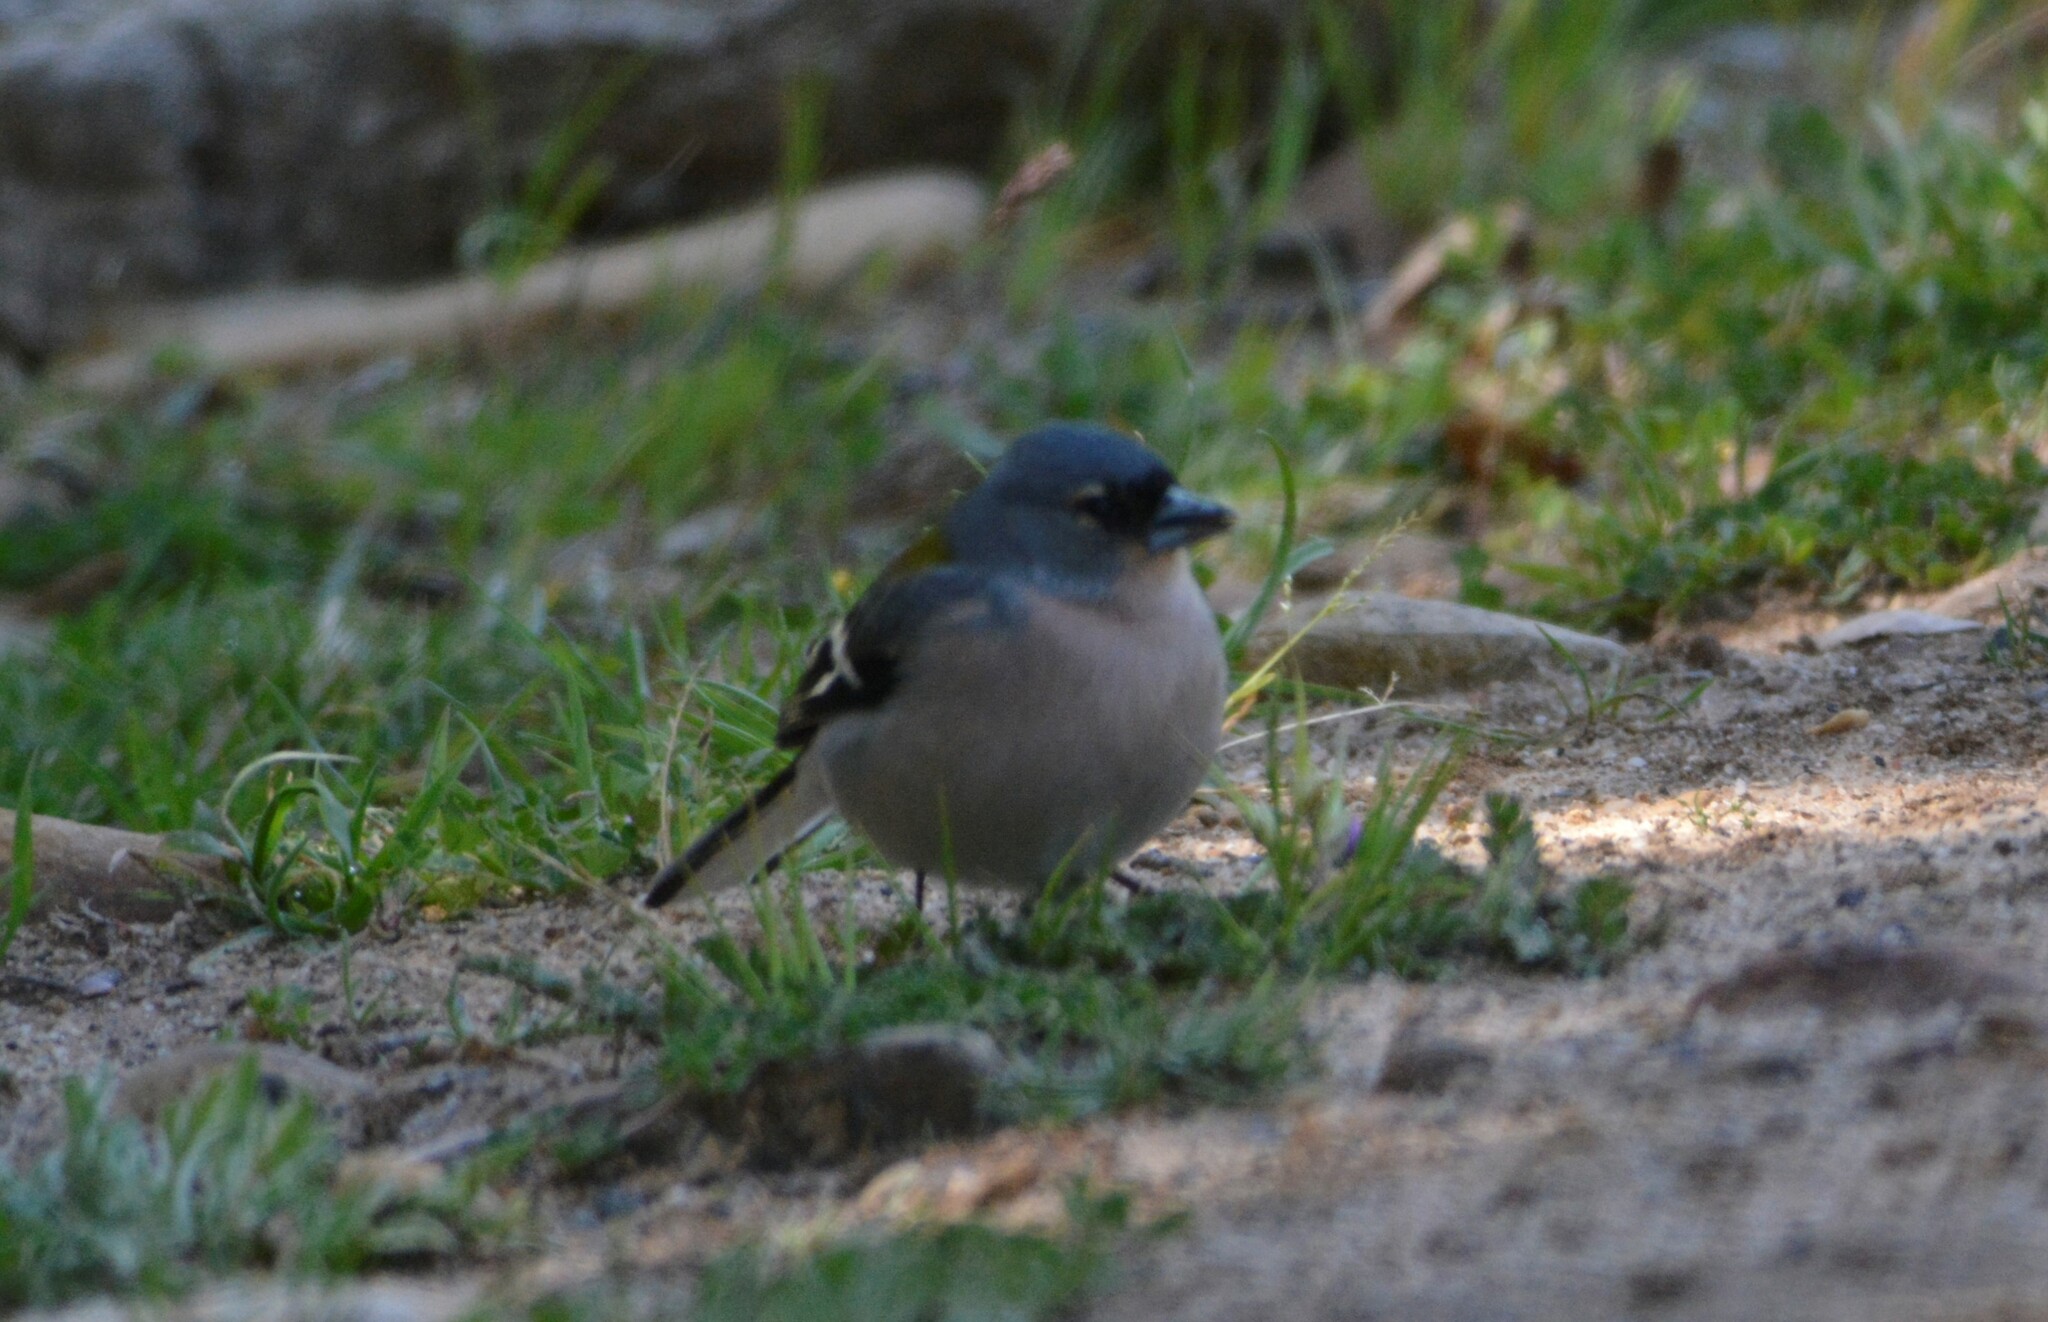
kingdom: Animalia
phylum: Chordata
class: Aves
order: Passeriformes
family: Fringillidae
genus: Fringilla
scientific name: Fringilla spodiogenys
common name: African chaffinch
